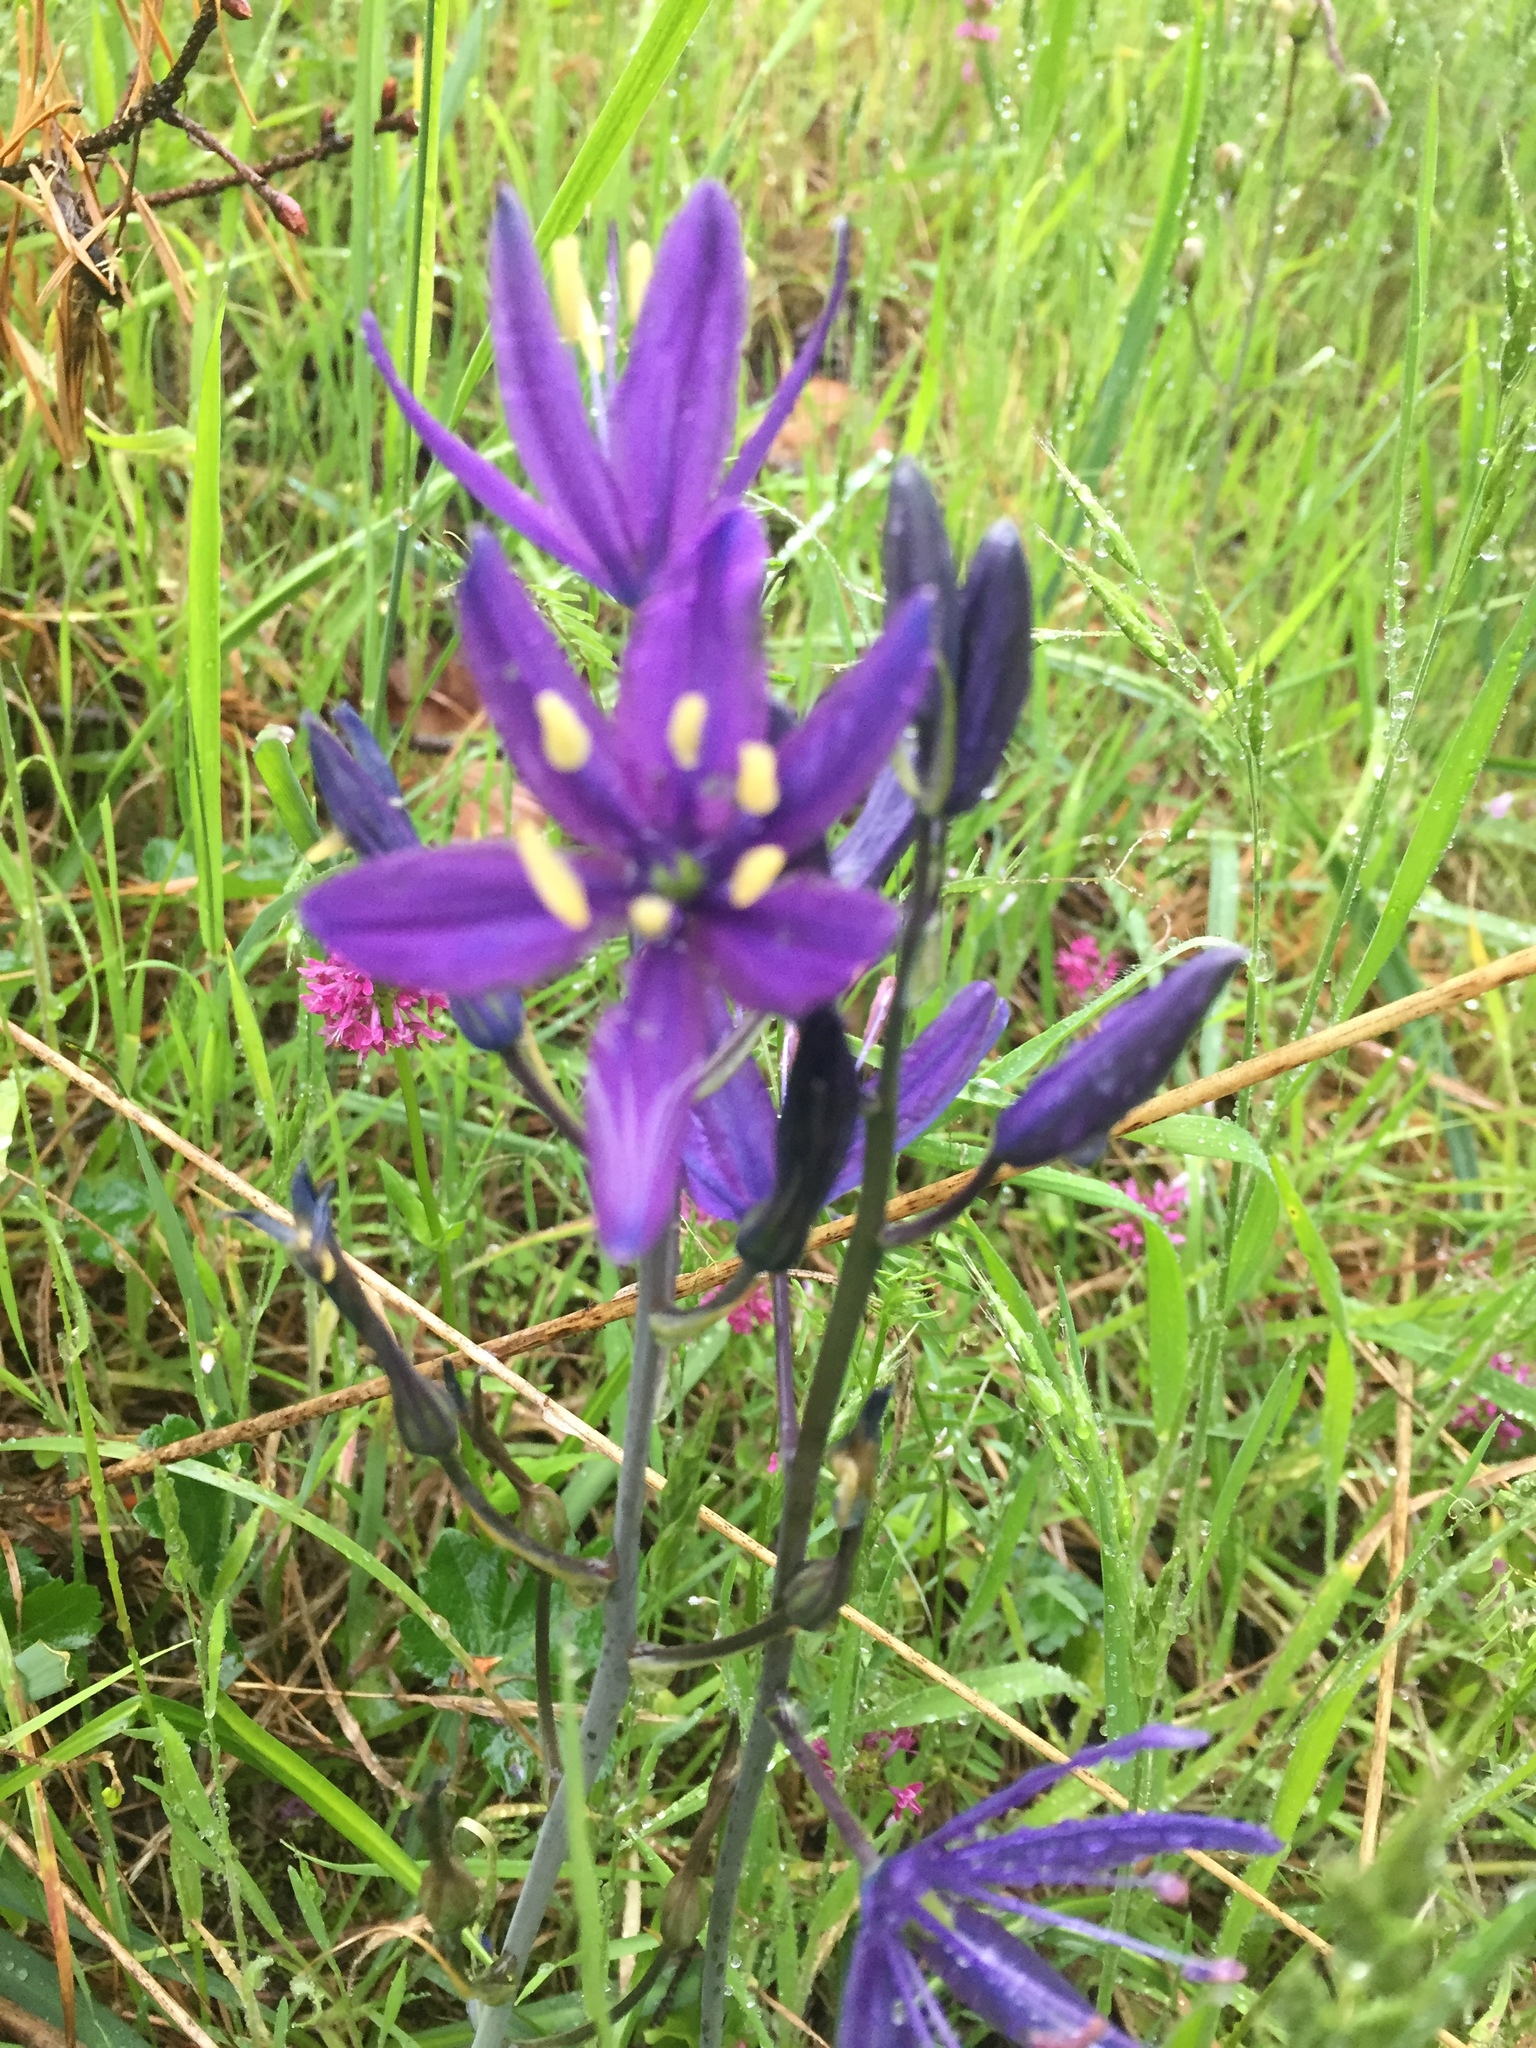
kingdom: Plantae
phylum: Tracheophyta
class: Liliopsida
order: Asparagales
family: Asparagaceae
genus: Camassia
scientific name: Camassia leichtlinii
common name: Leichtlin's camas
